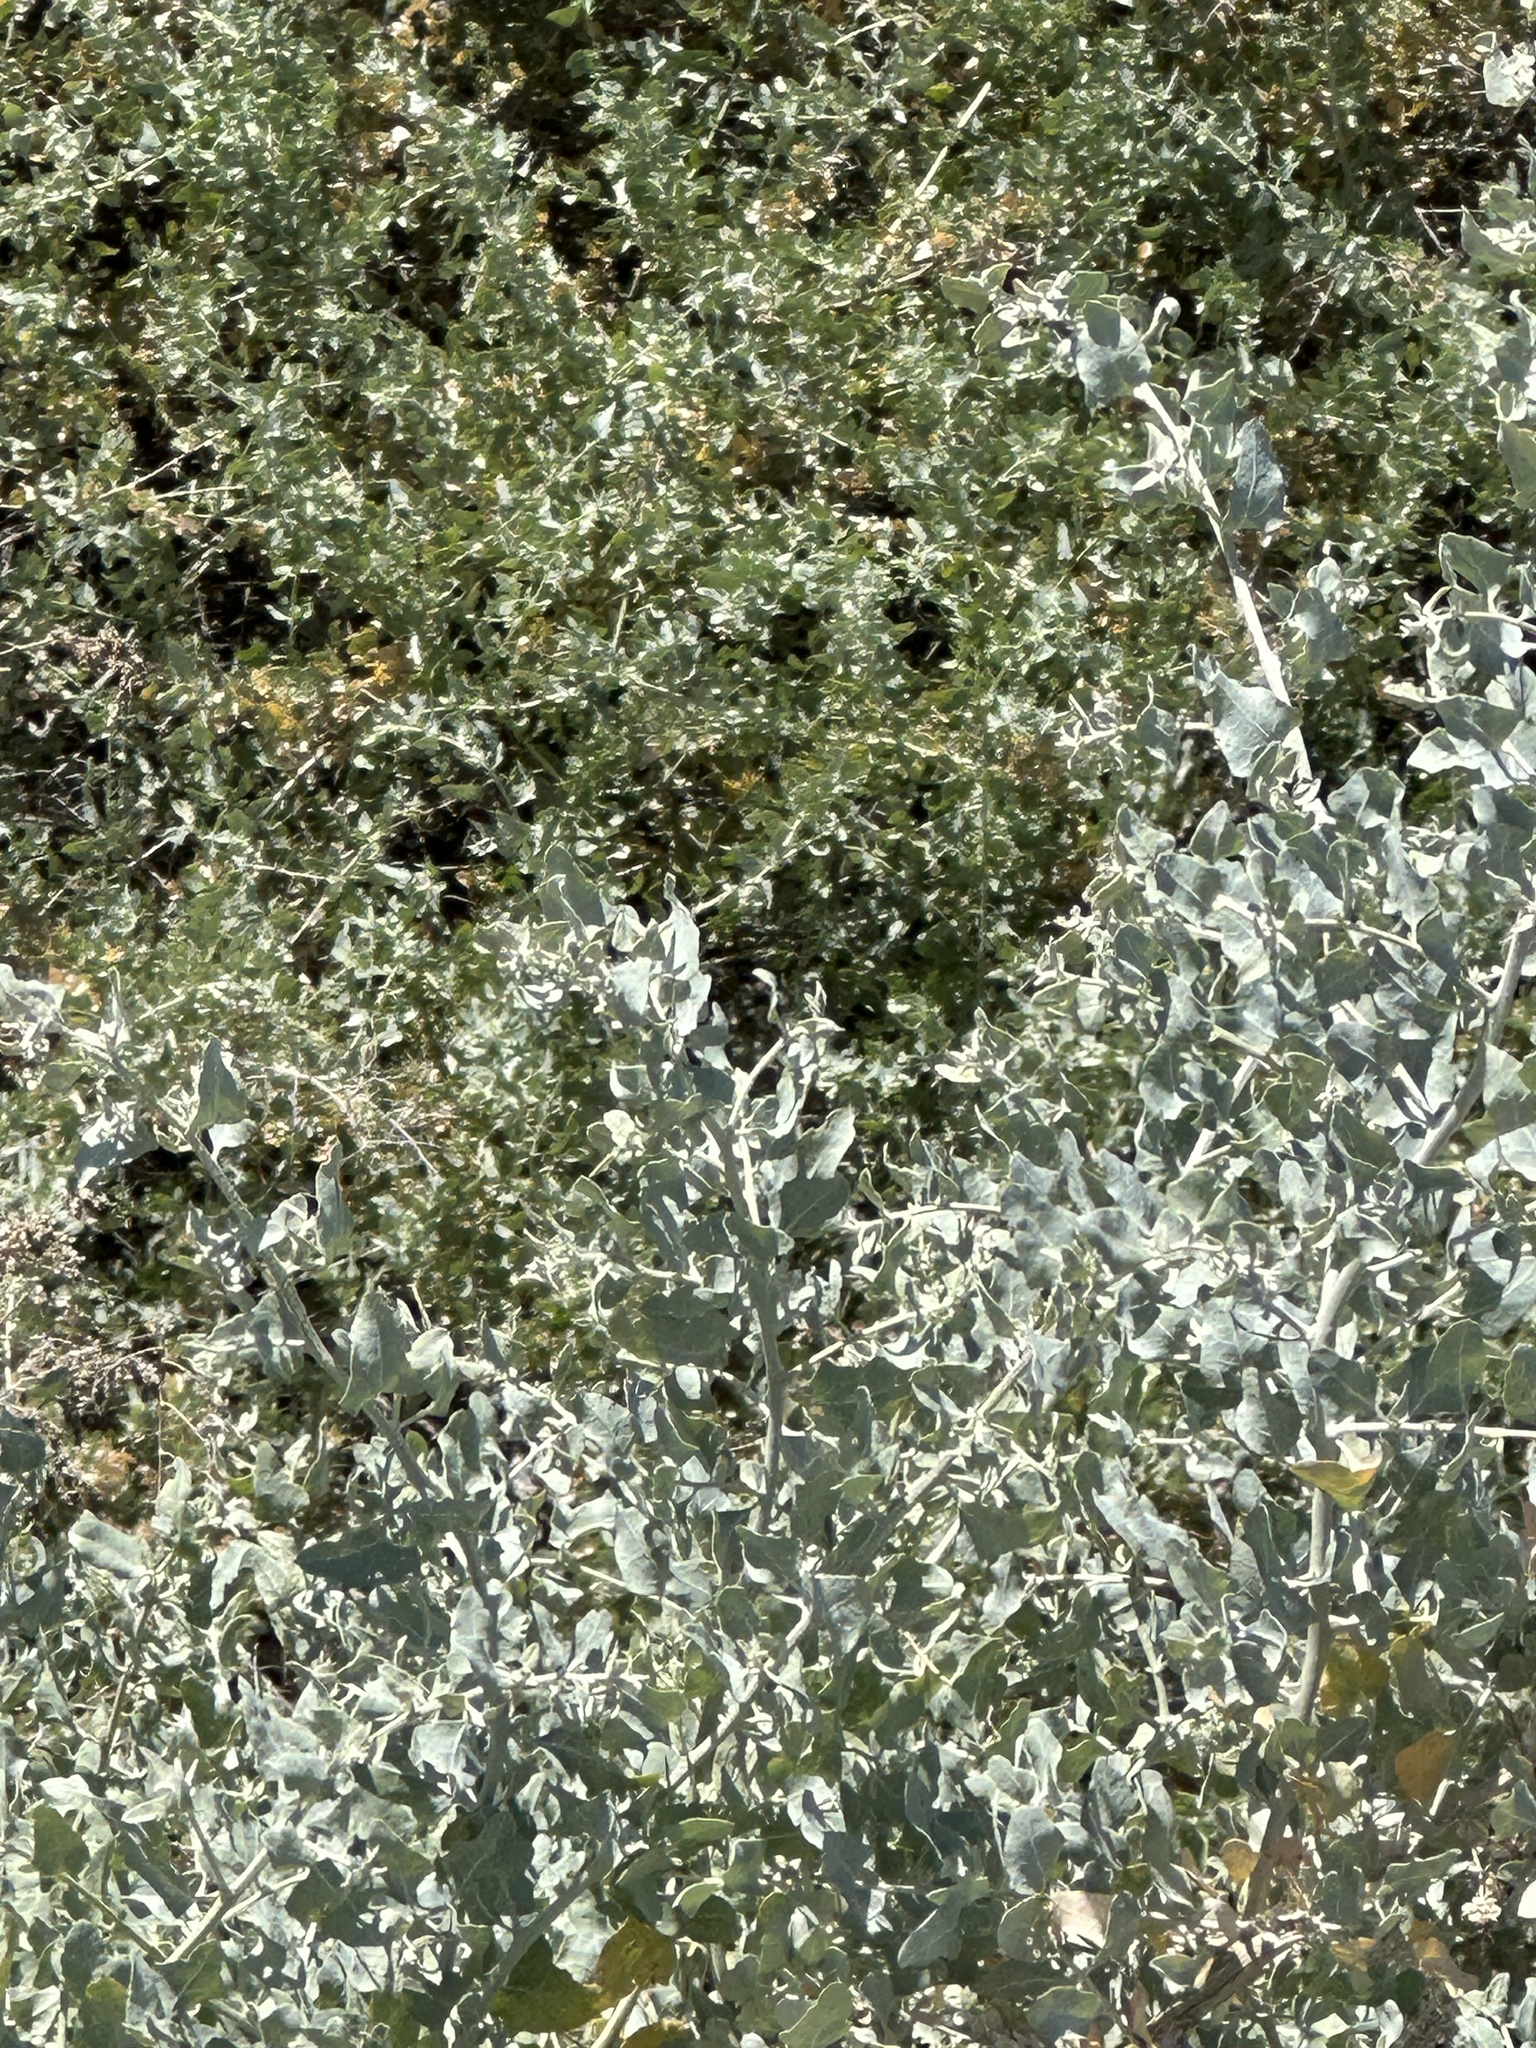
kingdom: Plantae
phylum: Tracheophyta
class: Magnoliopsida
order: Caryophyllales
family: Amaranthaceae
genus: Atriplex
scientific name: Atriplex lentiformis
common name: Big saltbush
